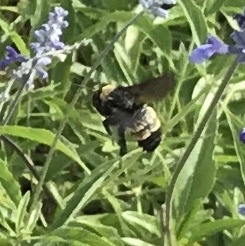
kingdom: Animalia
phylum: Arthropoda
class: Insecta
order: Hymenoptera
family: Apidae
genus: Bombus
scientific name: Bombus pensylvanicus
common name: Bumble bee
